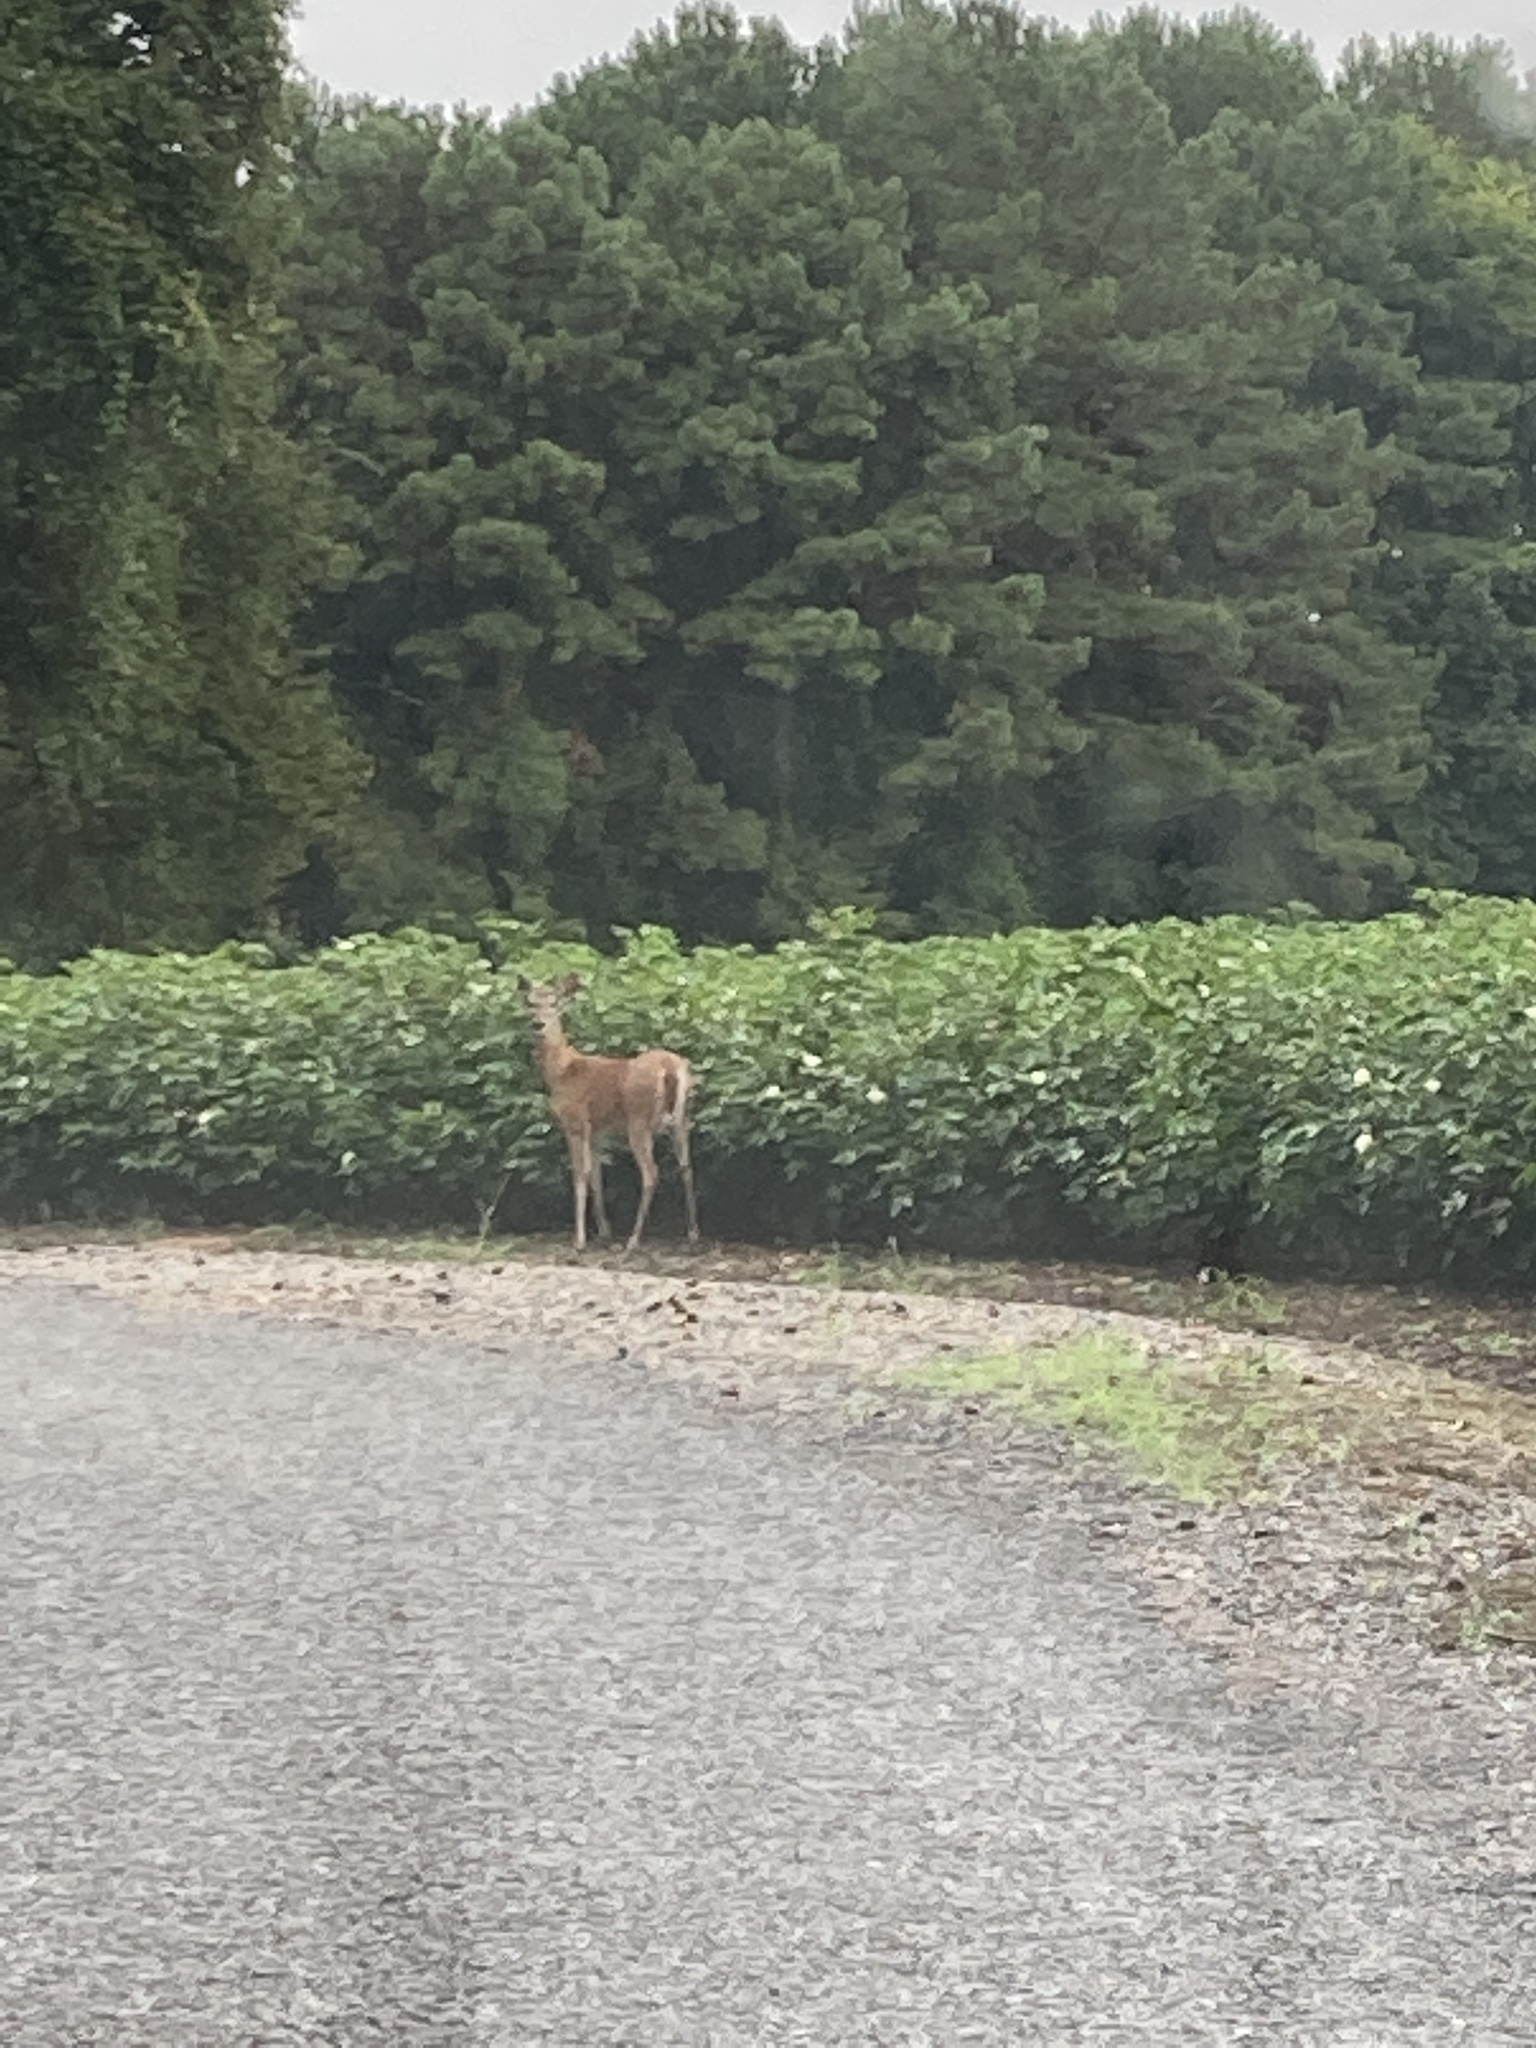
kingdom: Animalia
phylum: Chordata
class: Mammalia
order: Artiodactyla
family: Cervidae
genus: Odocoileus
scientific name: Odocoileus virginianus
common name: White-tailed deer
